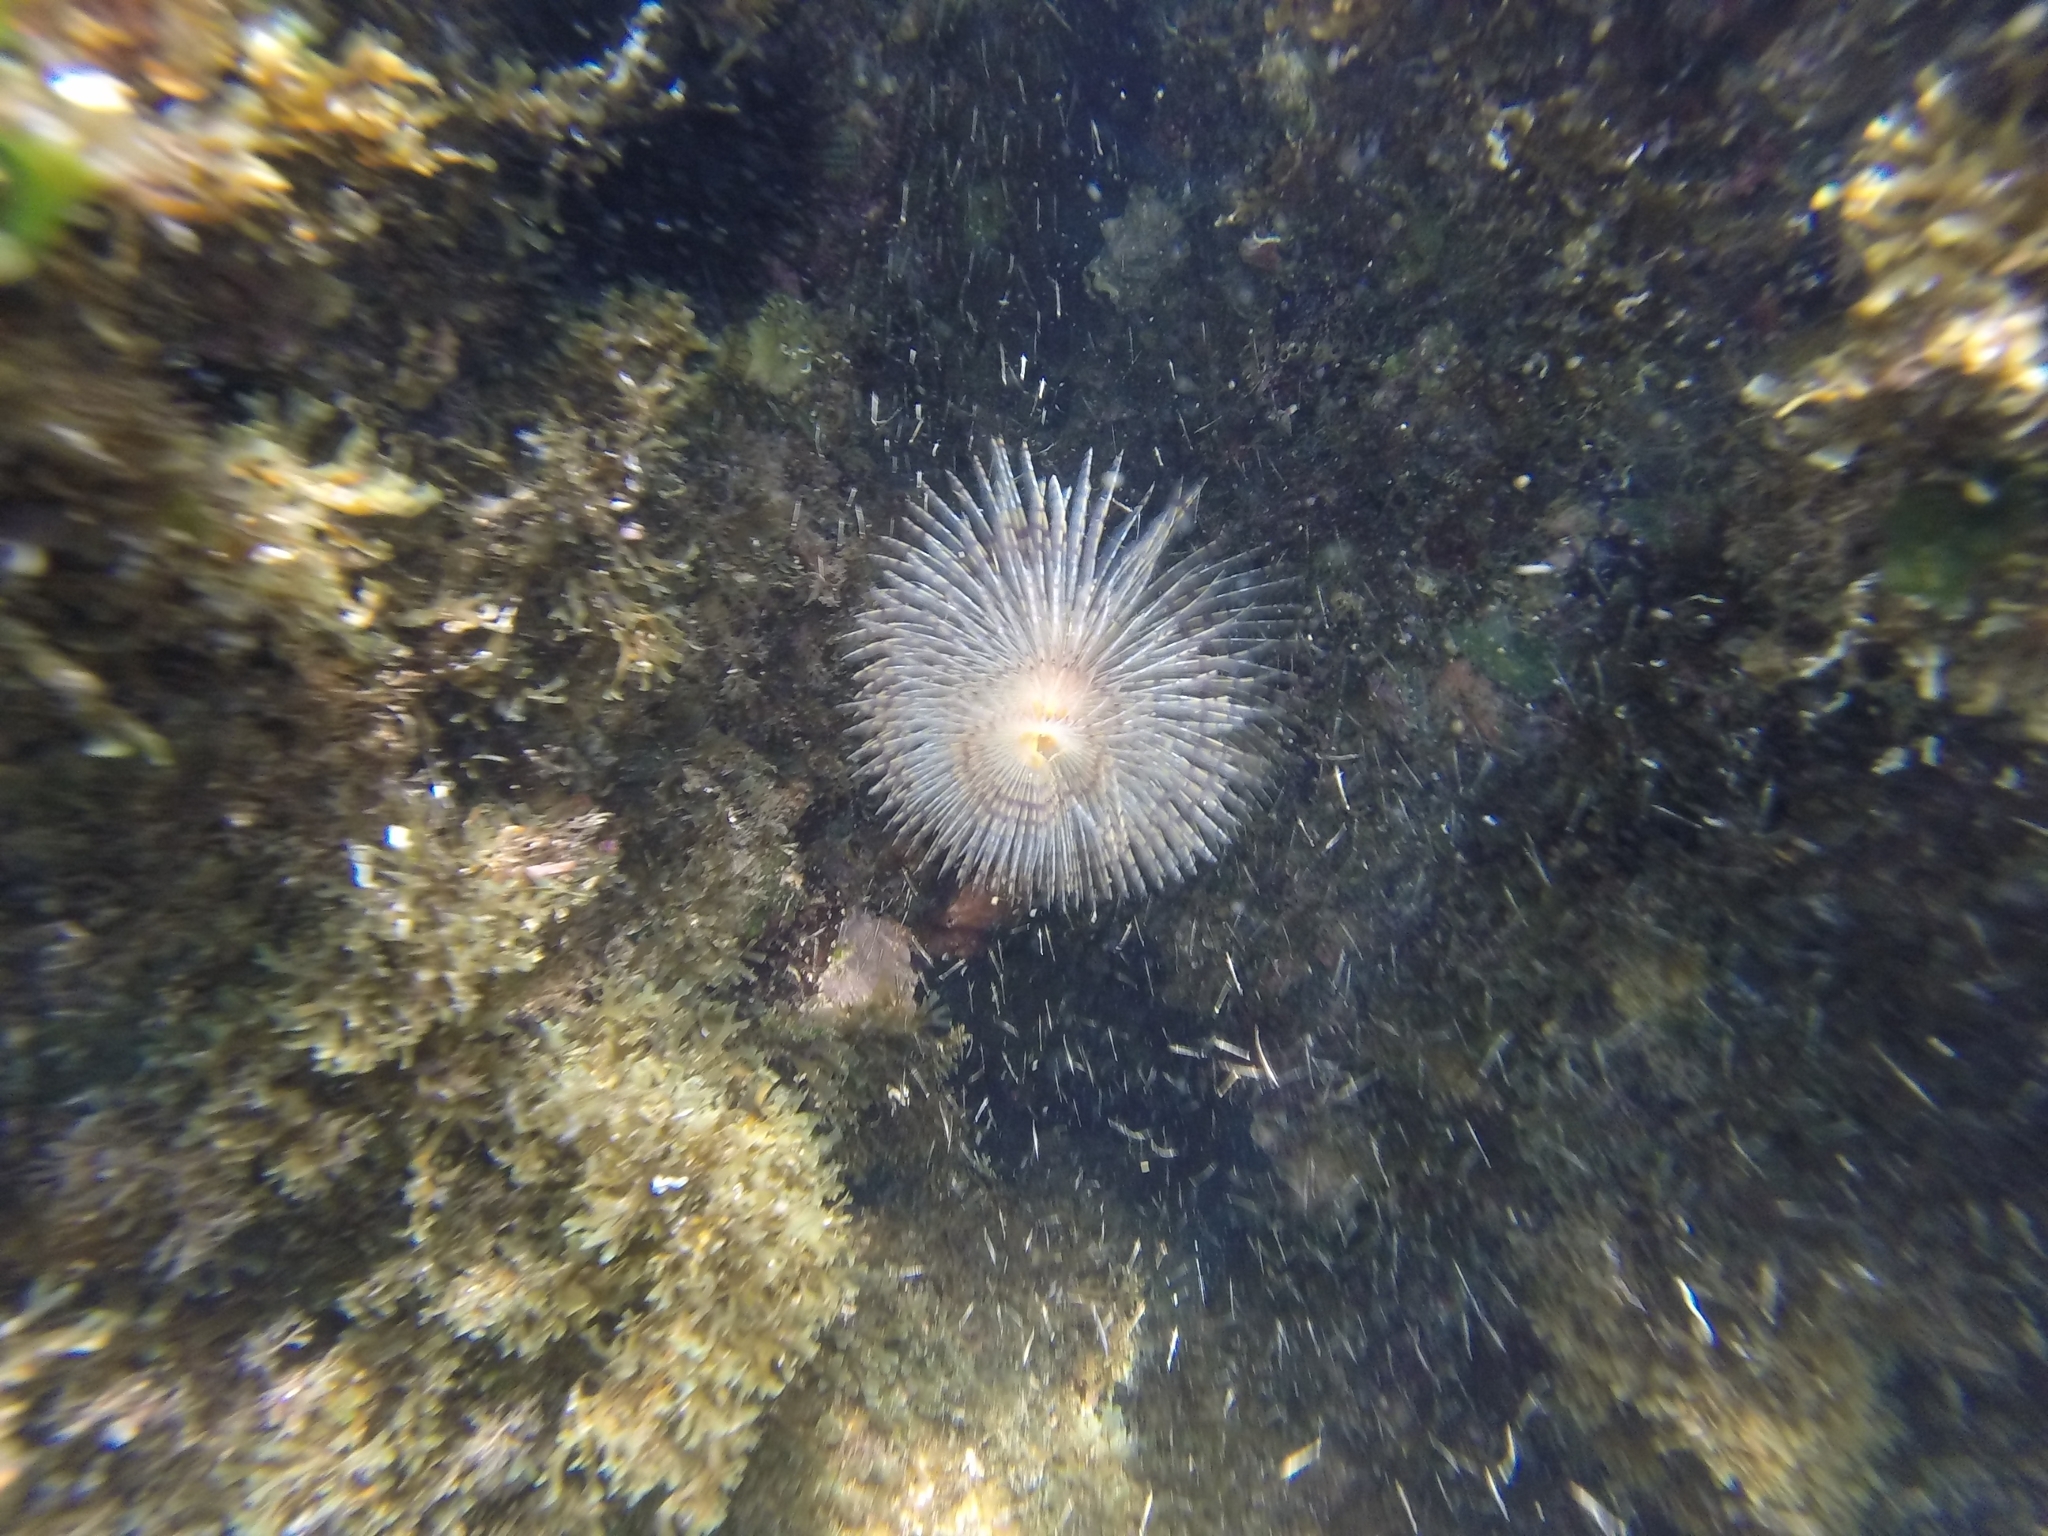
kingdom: Animalia
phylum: Annelida
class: Polychaeta
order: Sabellida
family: Sabellidae
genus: Sabella
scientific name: Sabella spallanzanii
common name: Feather duster worm
